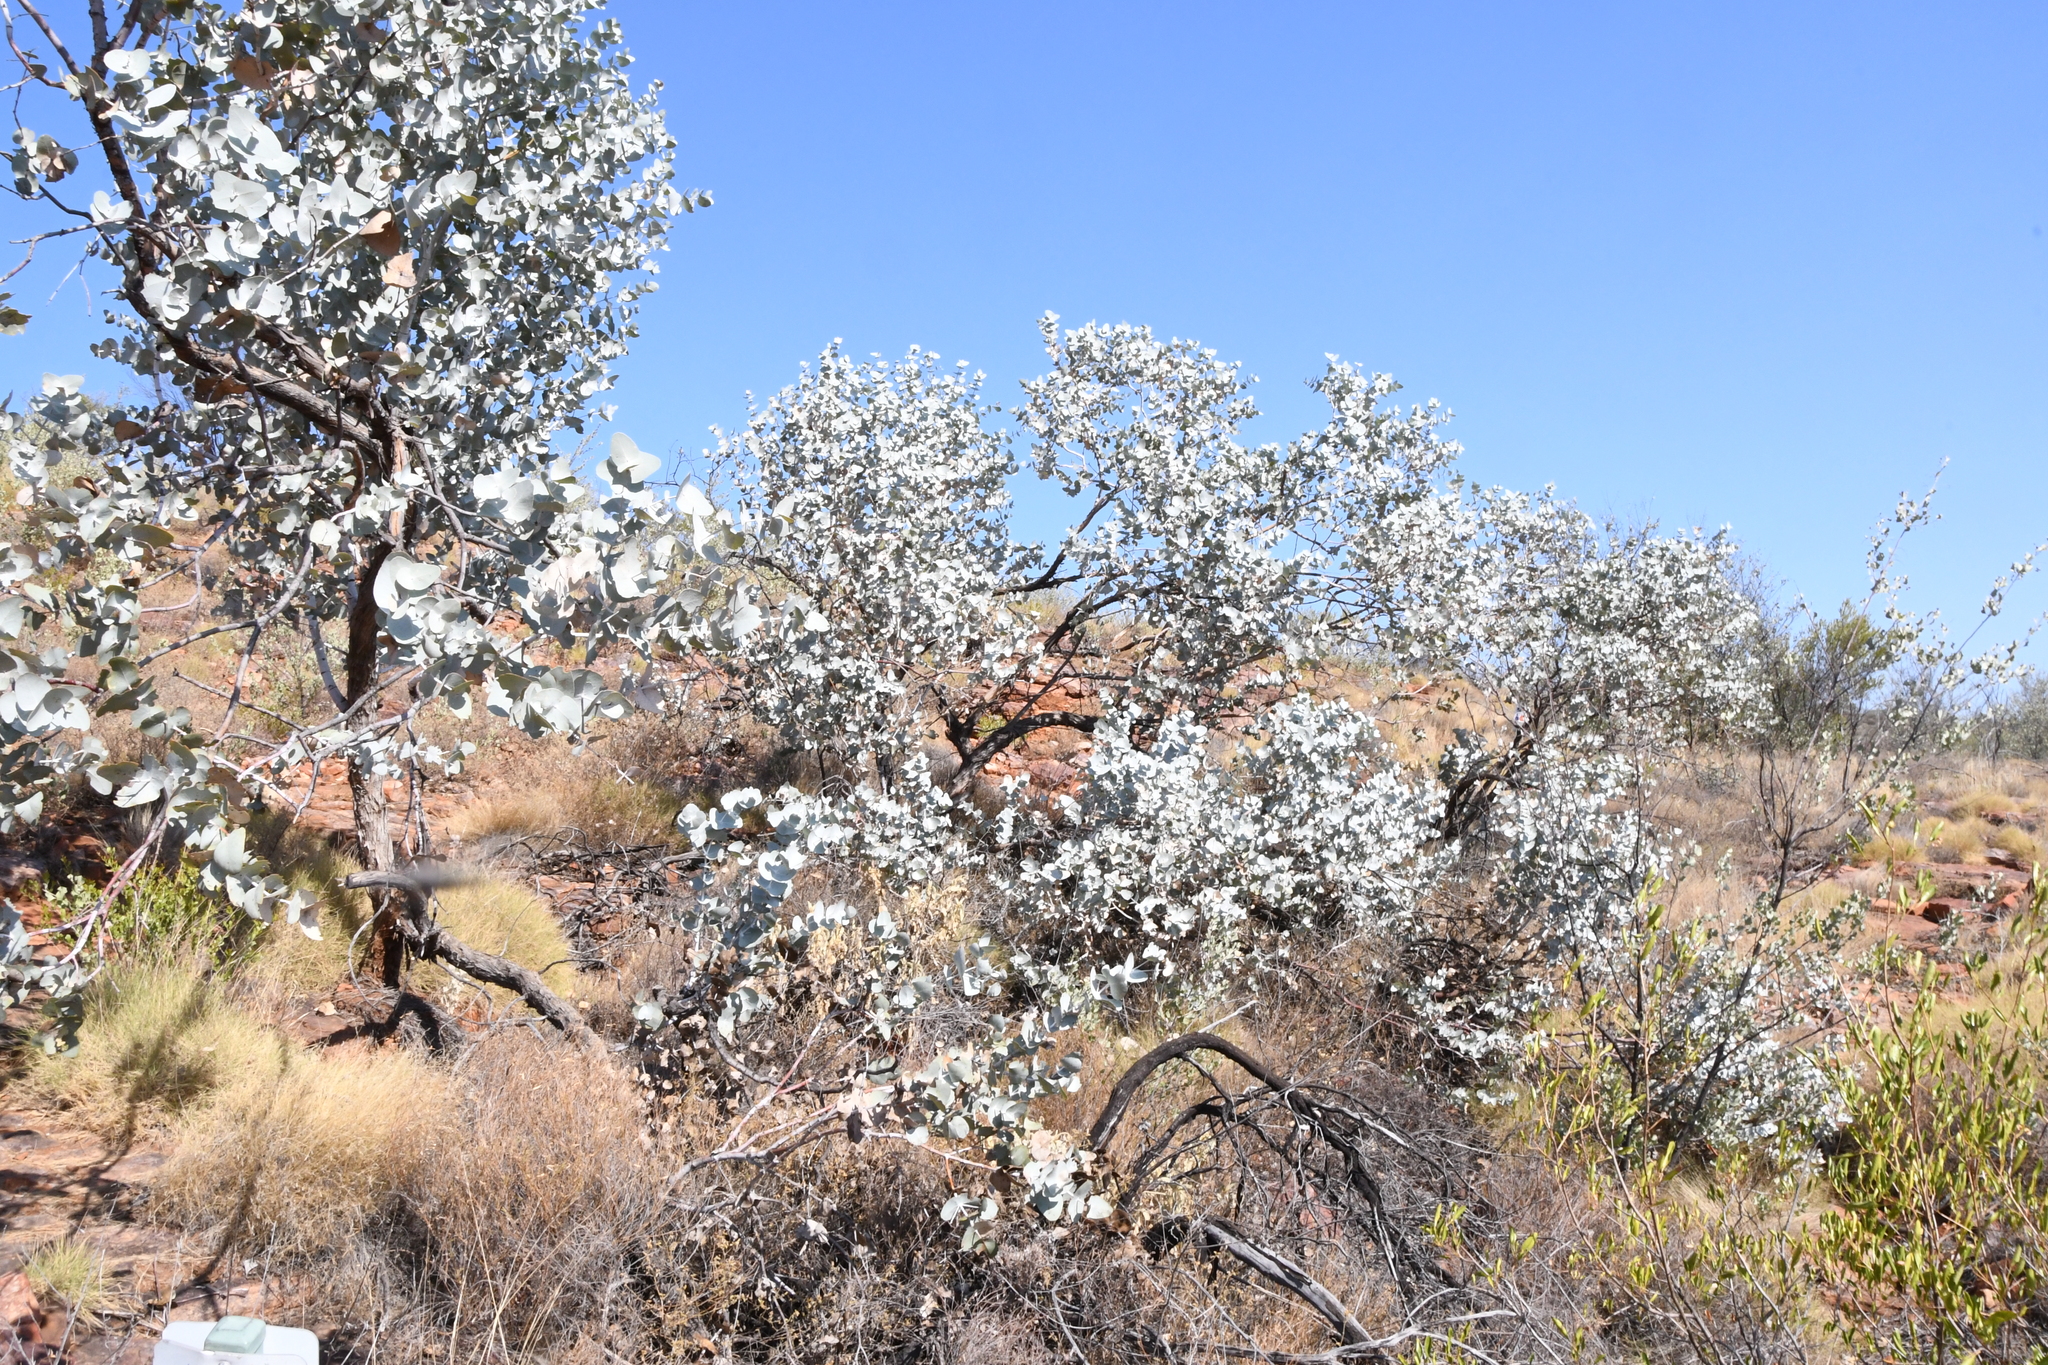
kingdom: Plantae
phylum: Tracheophyta
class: Magnoliopsida
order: Myrtales
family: Myrtaceae
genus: Eucalyptus
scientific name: Eucalyptus gamophylla
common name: Blue mallee
